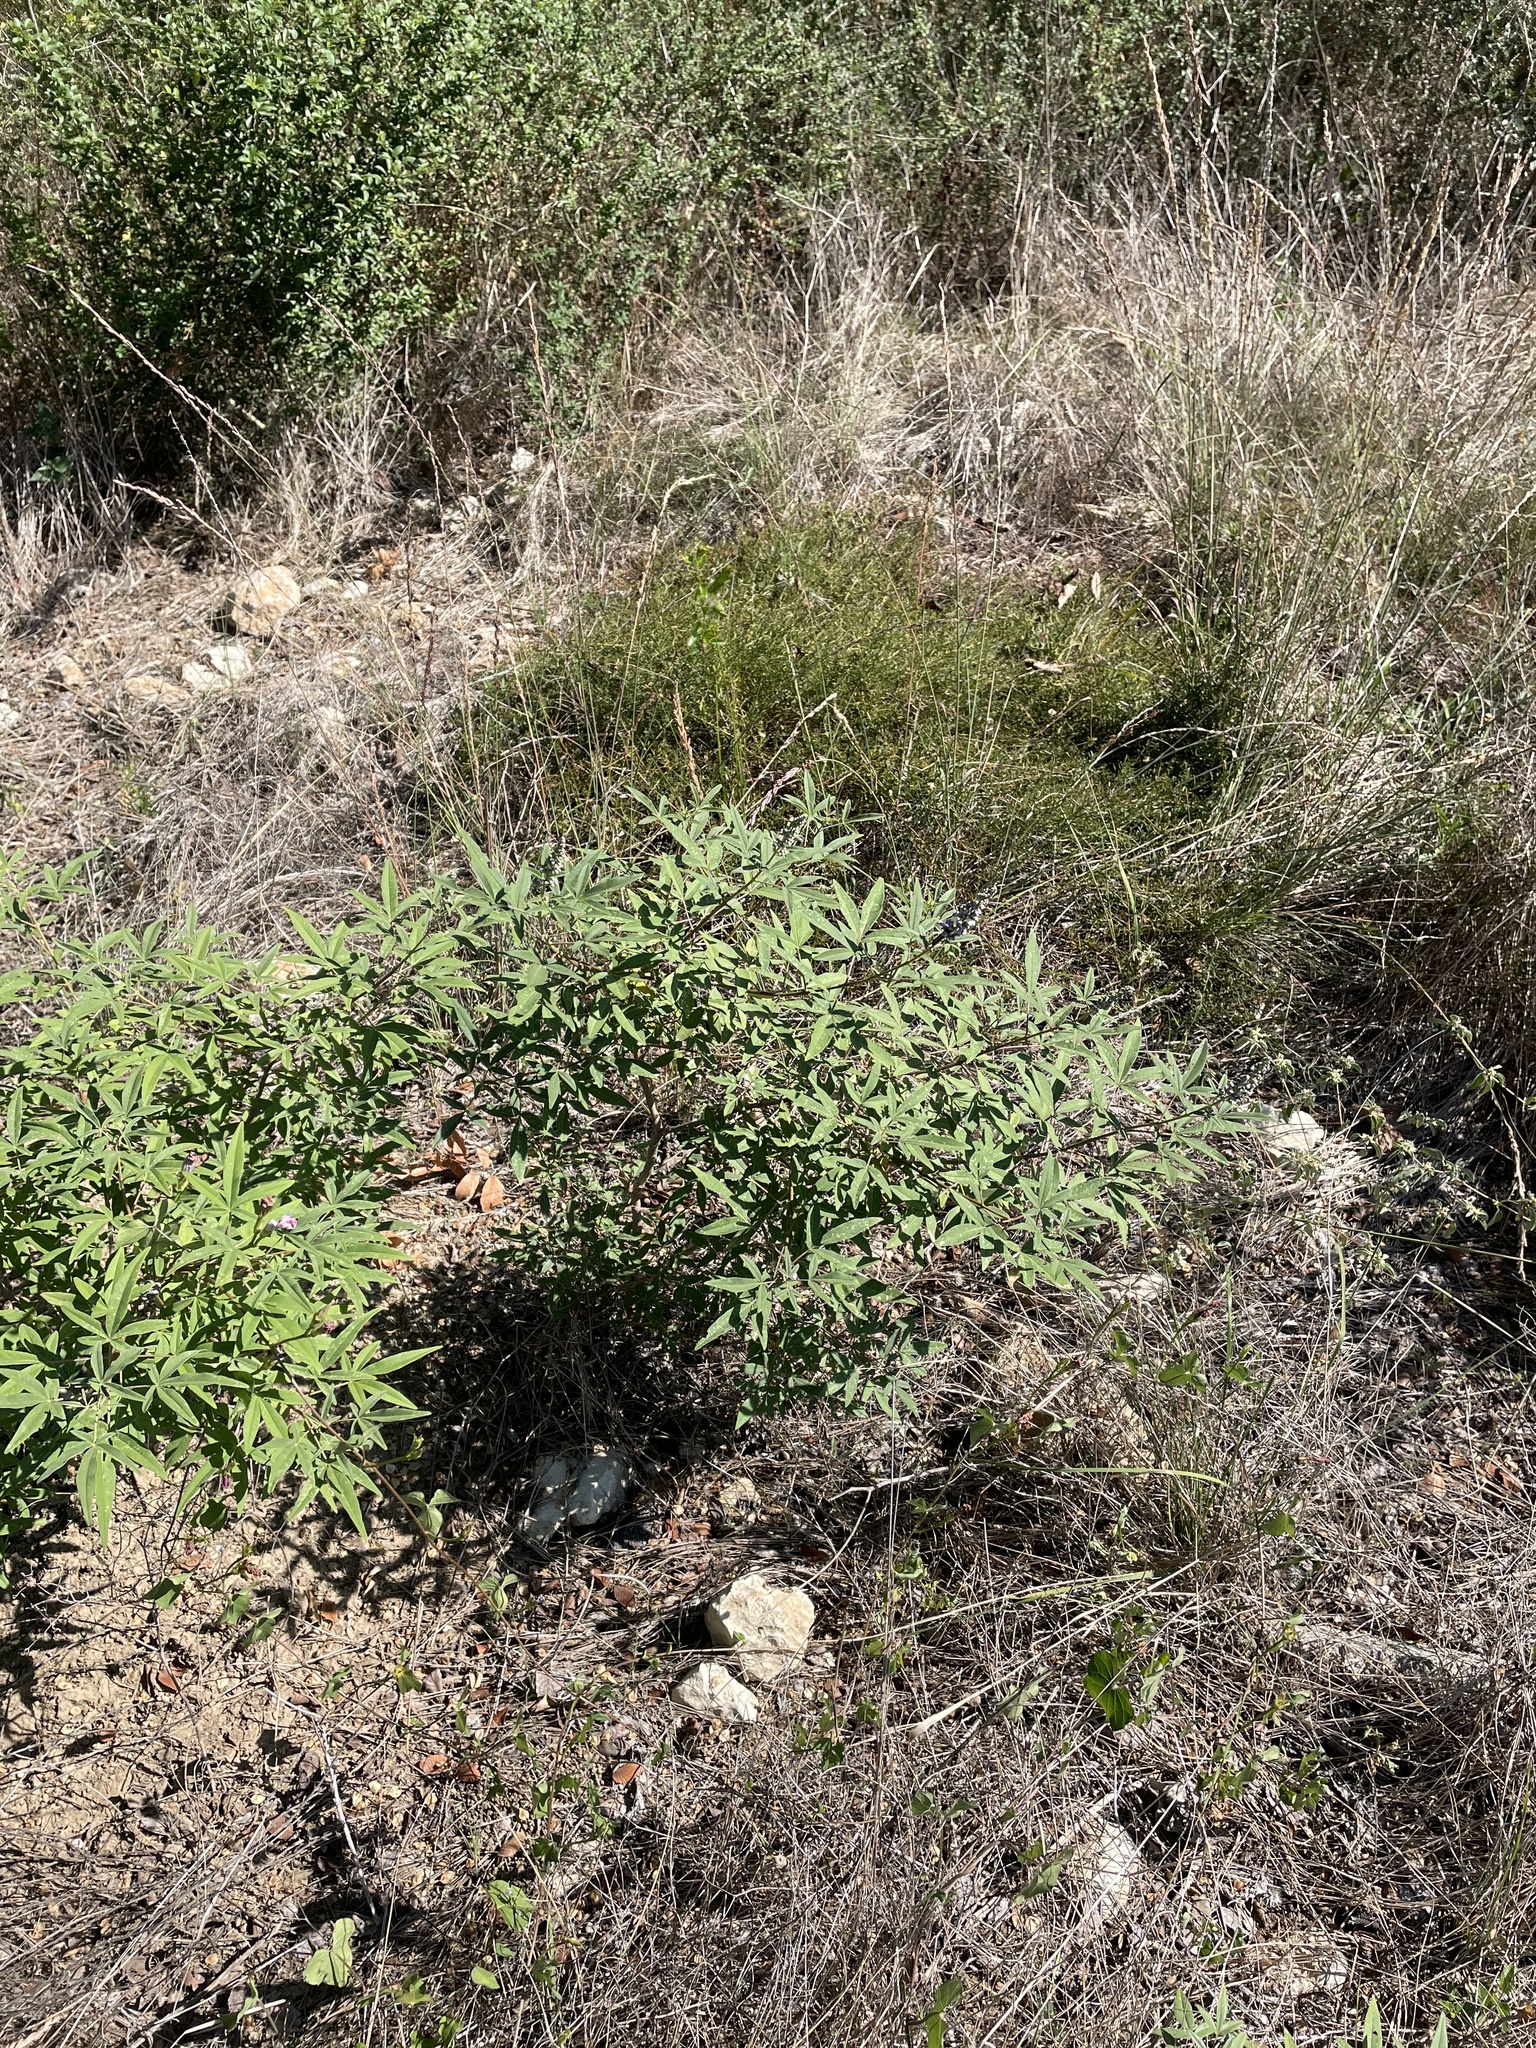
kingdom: Plantae
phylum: Tracheophyta
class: Magnoliopsida
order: Lamiales
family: Lamiaceae
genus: Vitex
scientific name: Vitex agnus-castus
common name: Chasteberry
